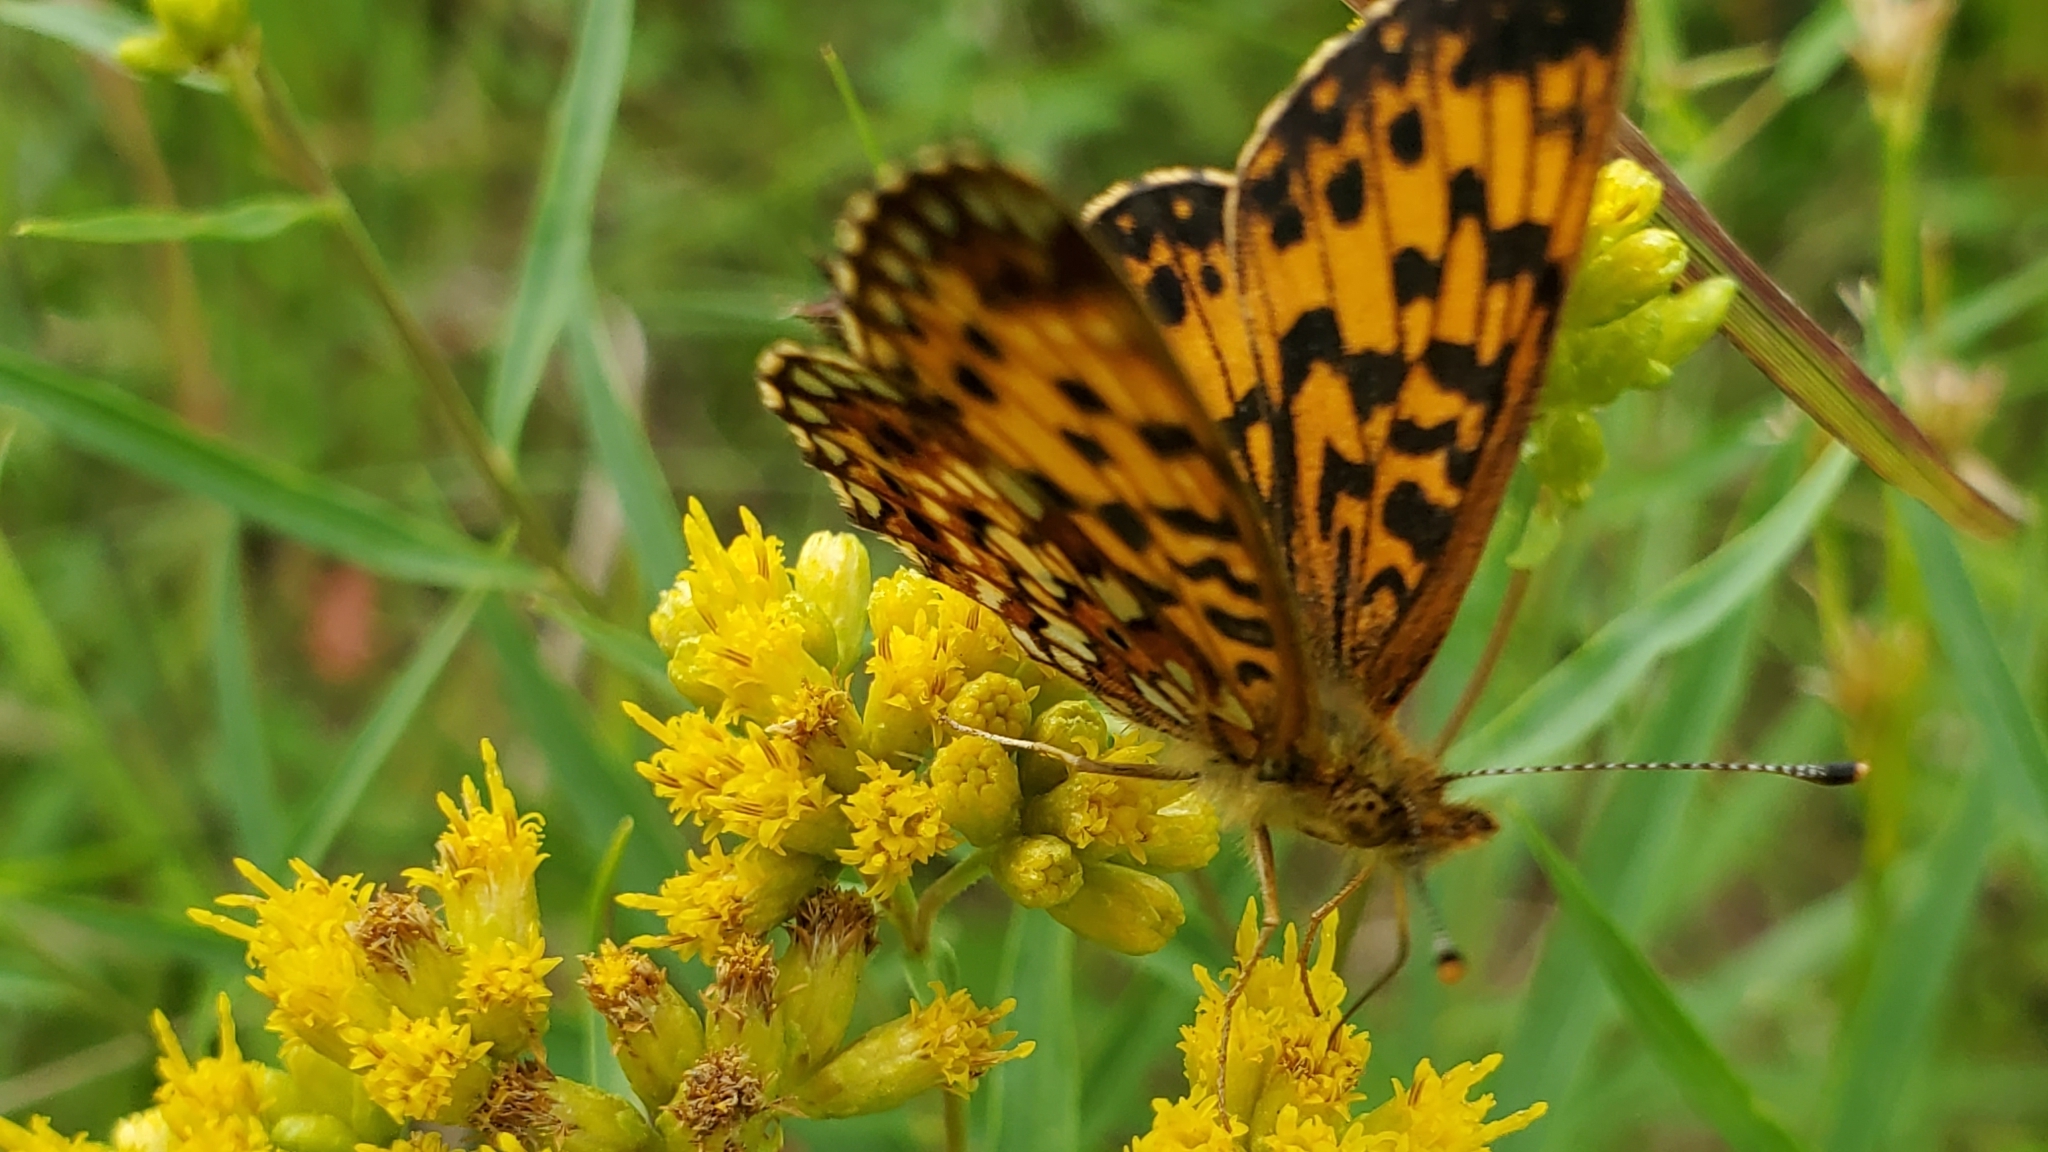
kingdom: Animalia
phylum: Arthropoda
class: Insecta
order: Lepidoptera
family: Nymphalidae
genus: Boloria
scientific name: Boloria
